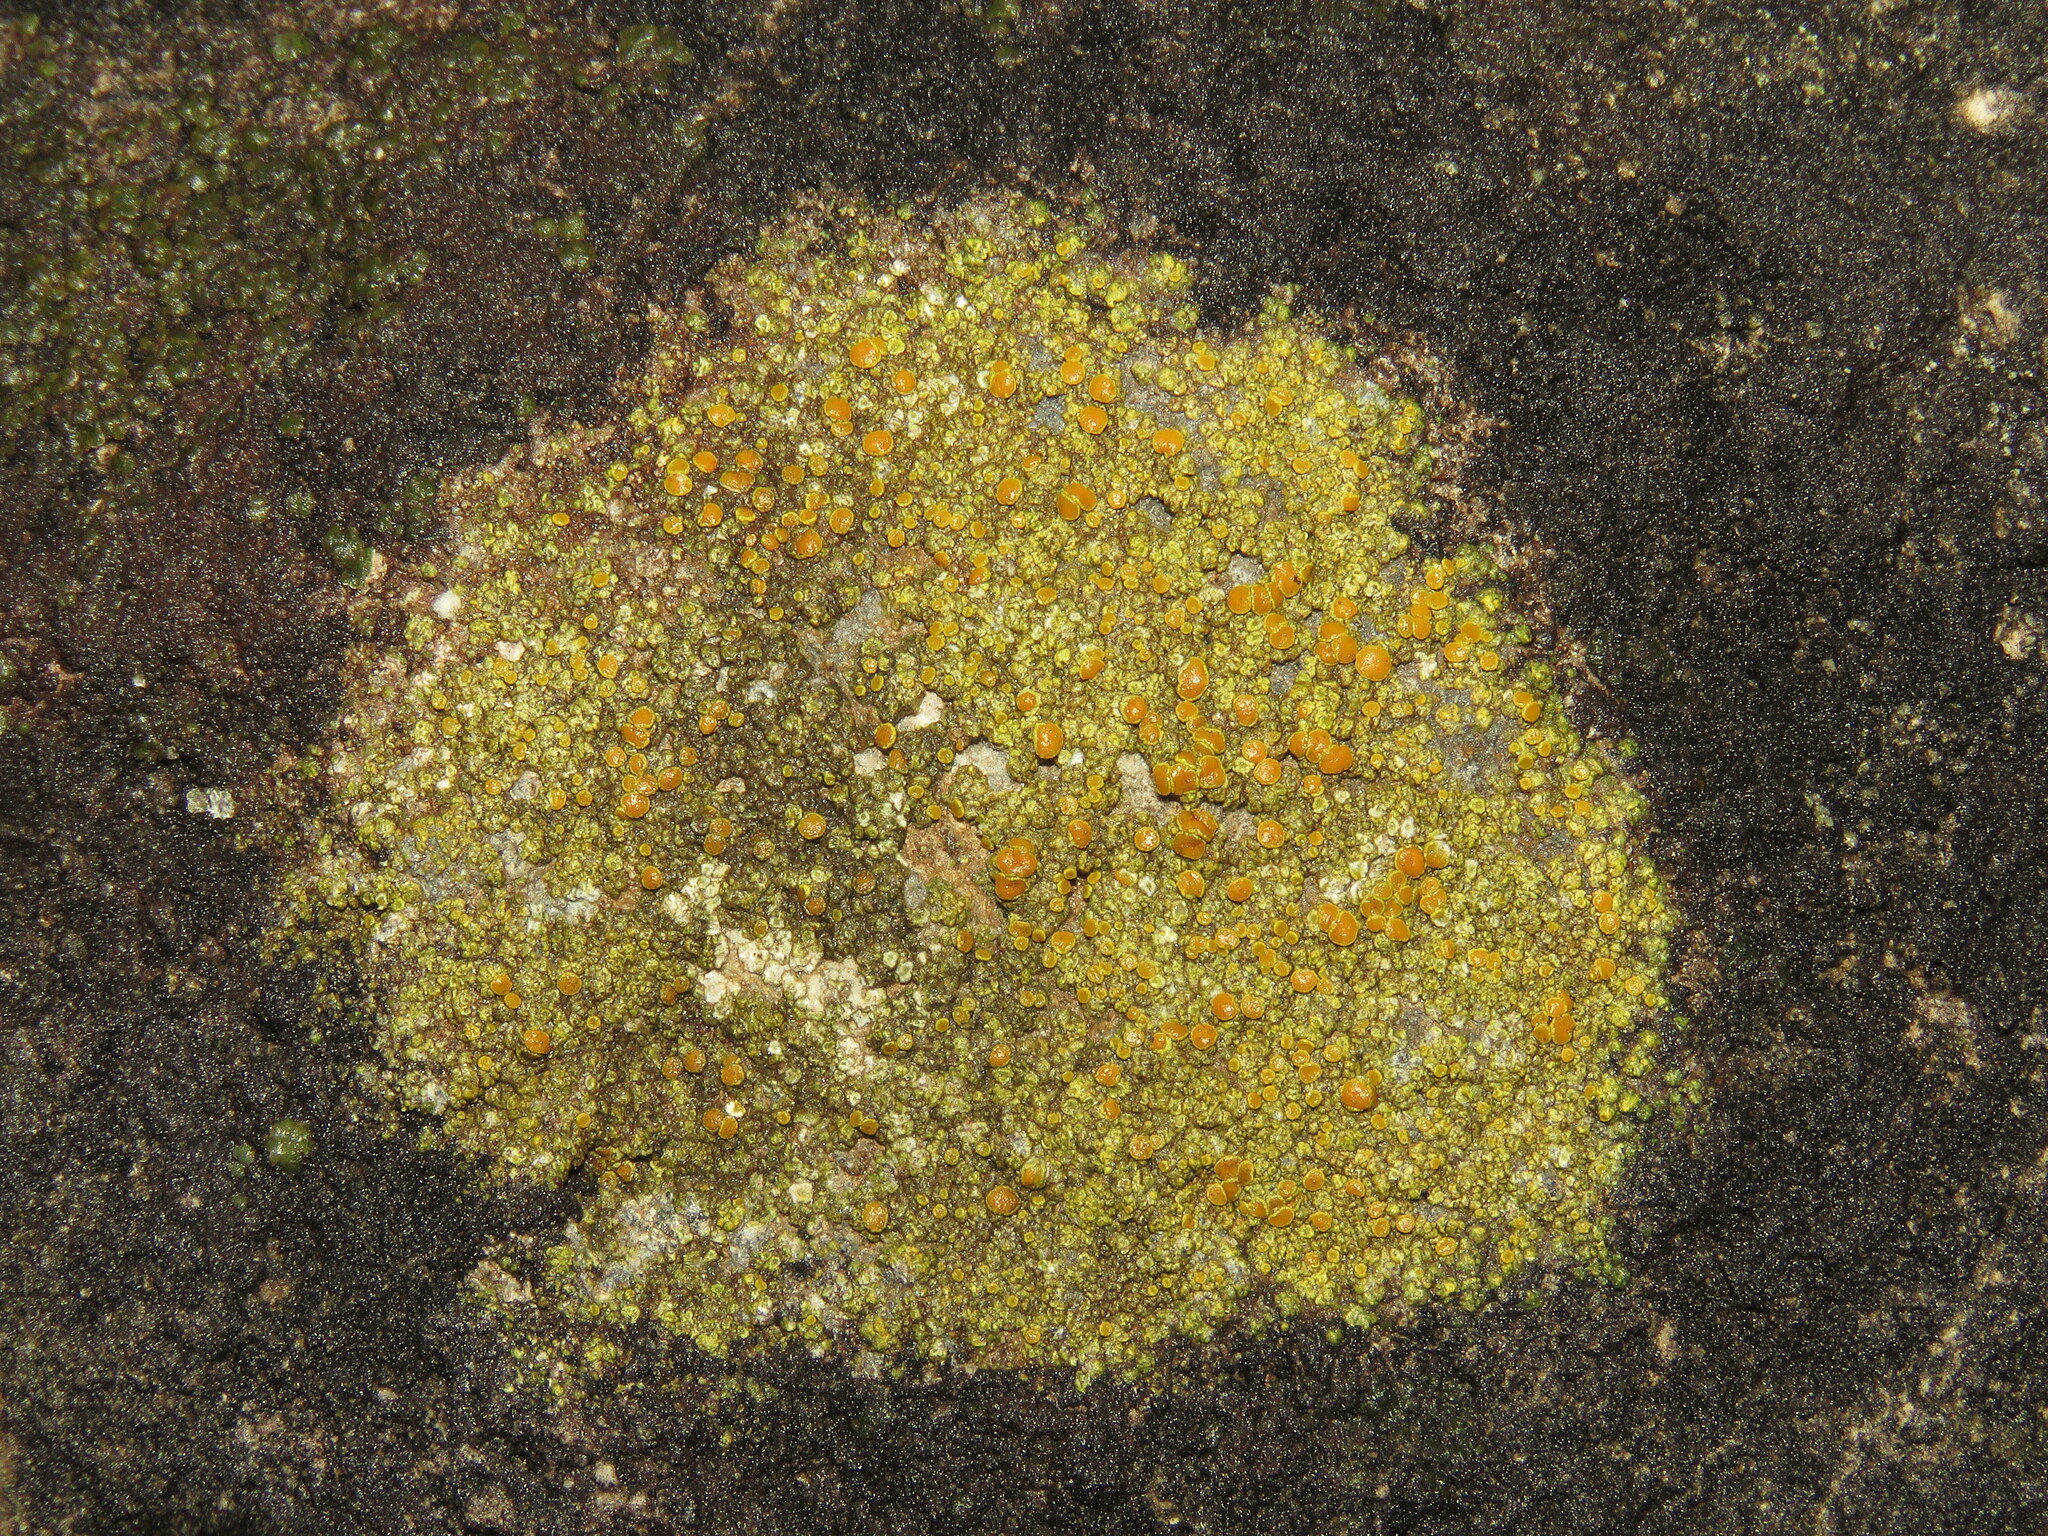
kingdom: Fungi
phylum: Ascomycota
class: Lecanoromycetes
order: Teloschistales
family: Teloschistaceae
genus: Gyalolechia
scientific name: Gyalolechia flavovirescens
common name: Sulphur firedot
